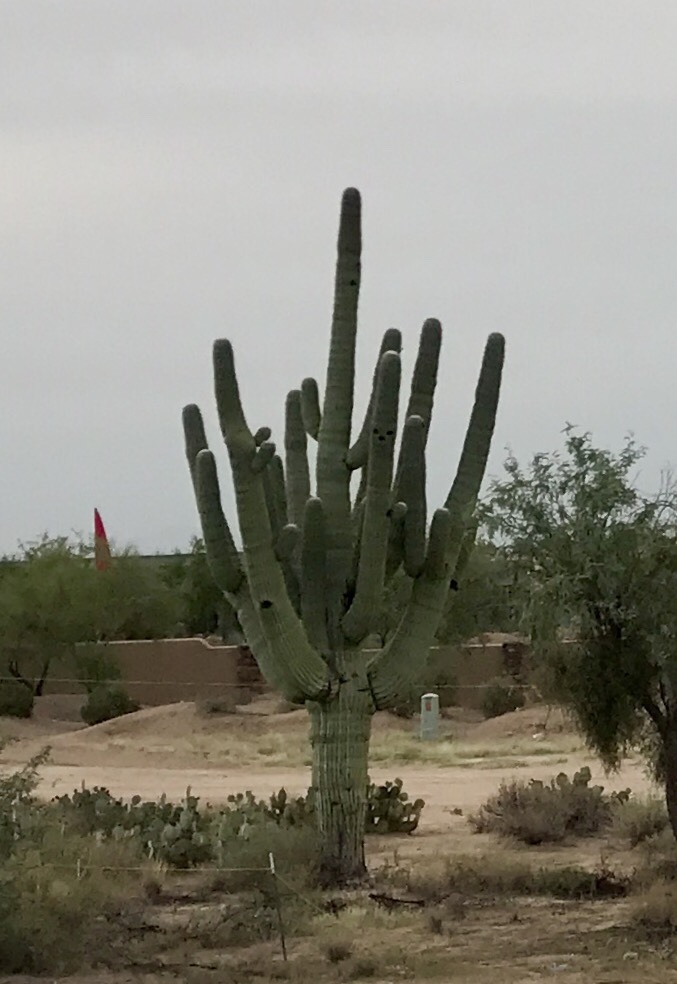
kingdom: Plantae
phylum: Tracheophyta
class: Magnoliopsida
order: Caryophyllales
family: Cactaceae
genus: Carnegiea
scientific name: Carnegiea gigantea
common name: Saguaro
